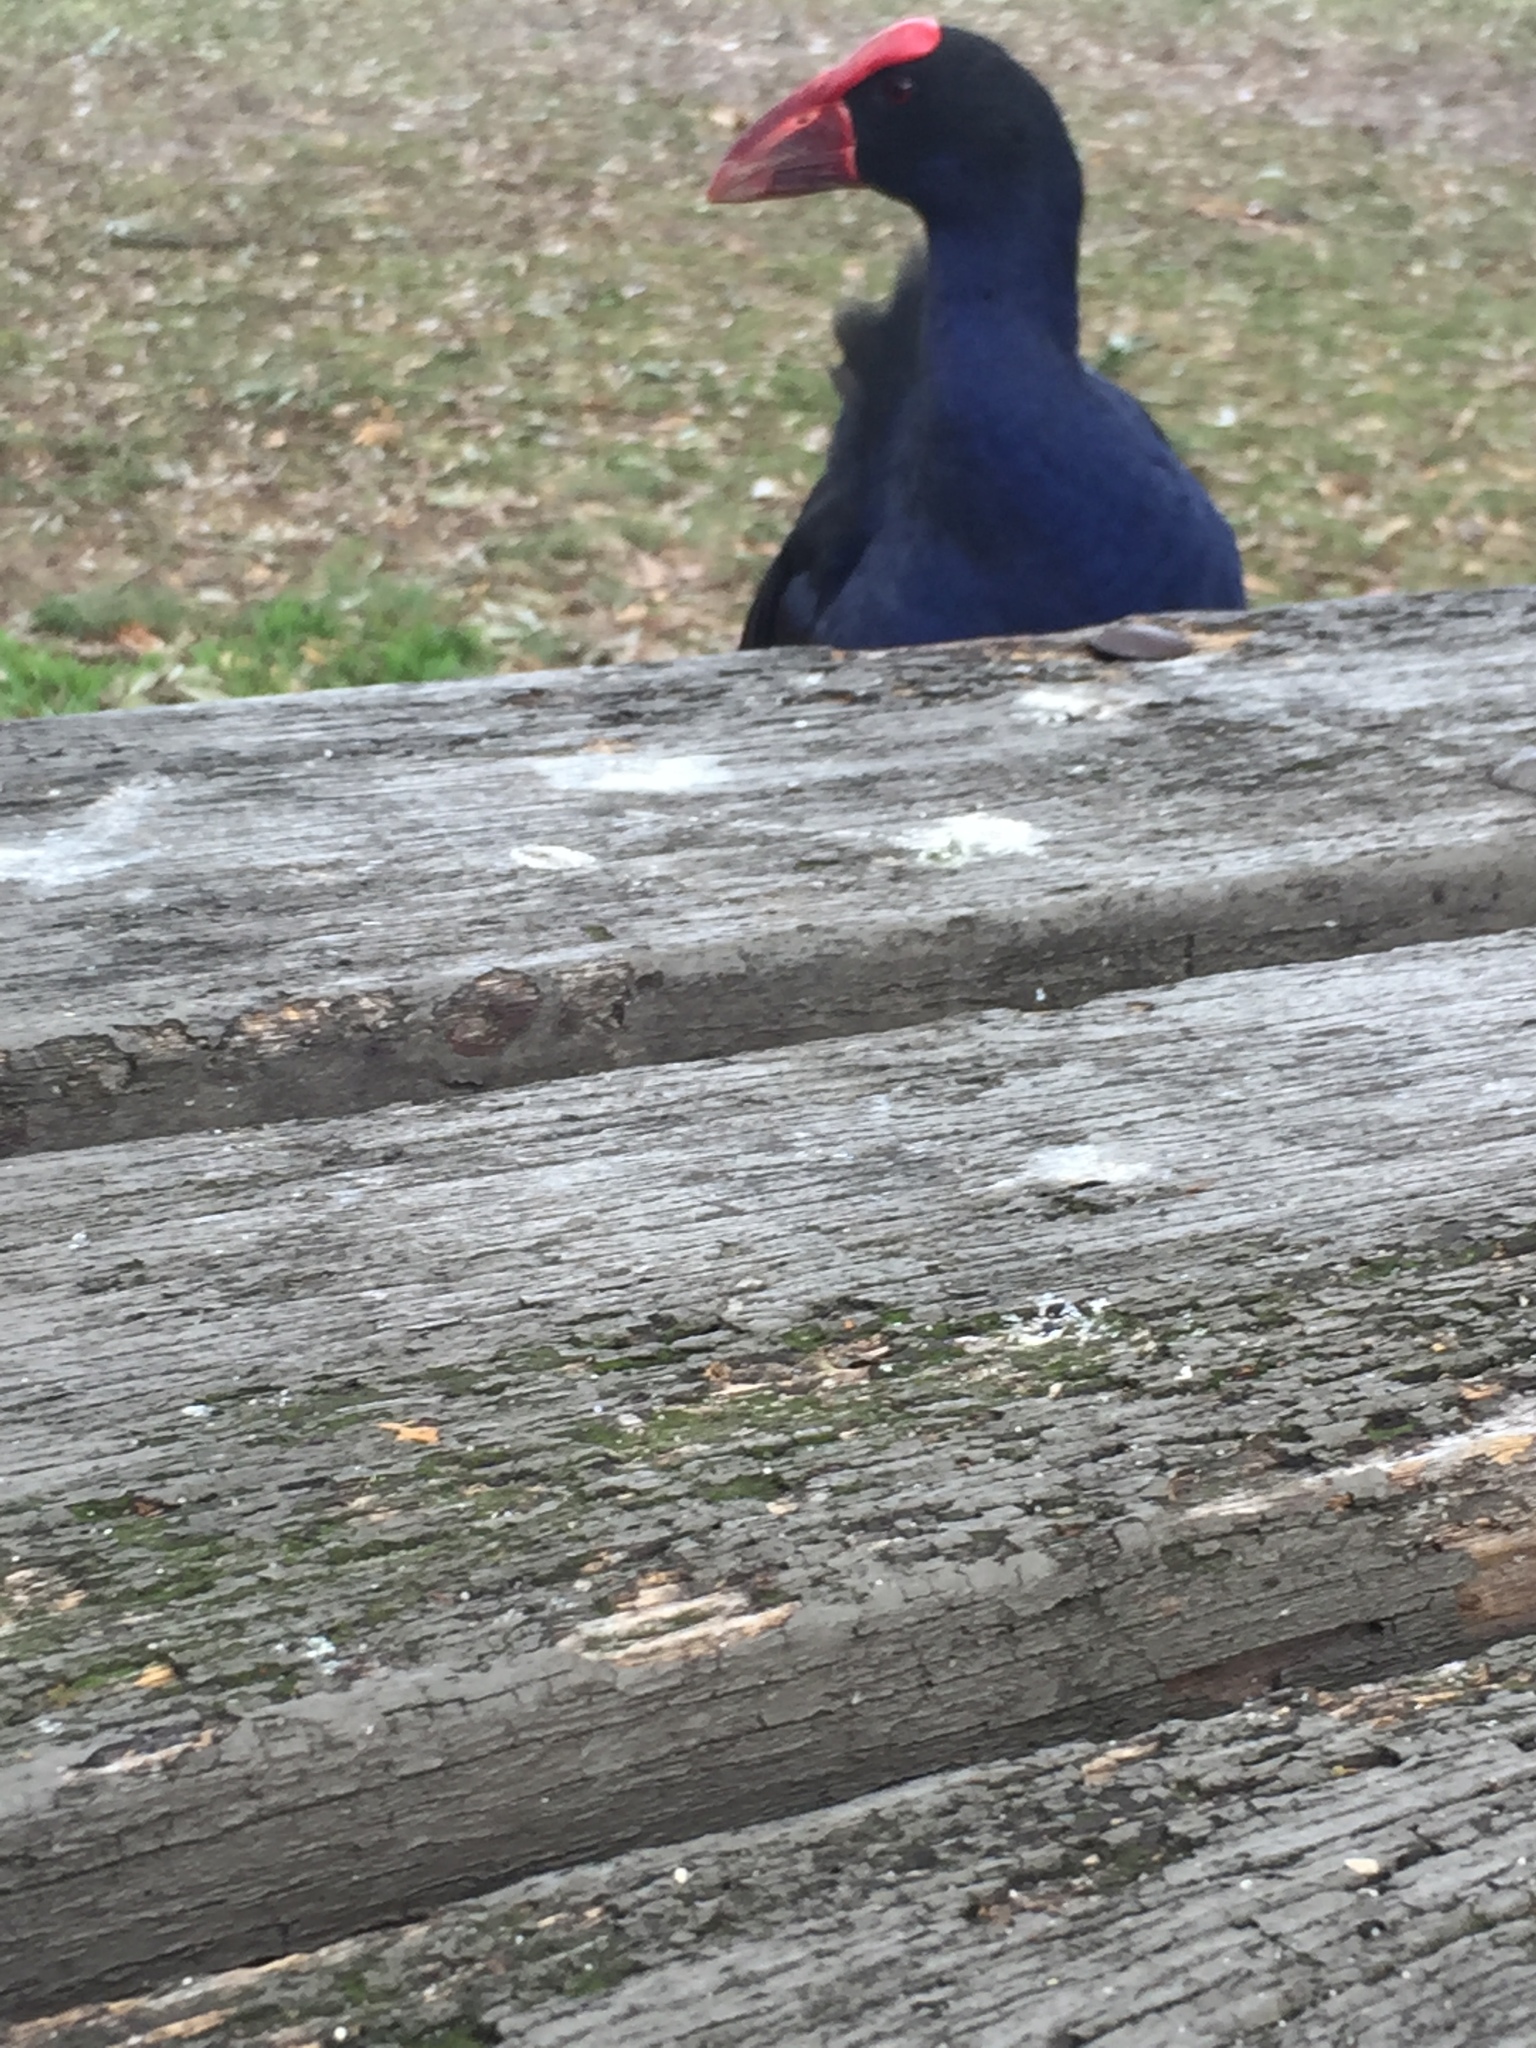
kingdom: Animalia
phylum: Chordata
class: Aves
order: Gruiformes
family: Rallidae
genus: Porphyrio
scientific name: Porphyrio melanotus
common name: Australasian swamphen
